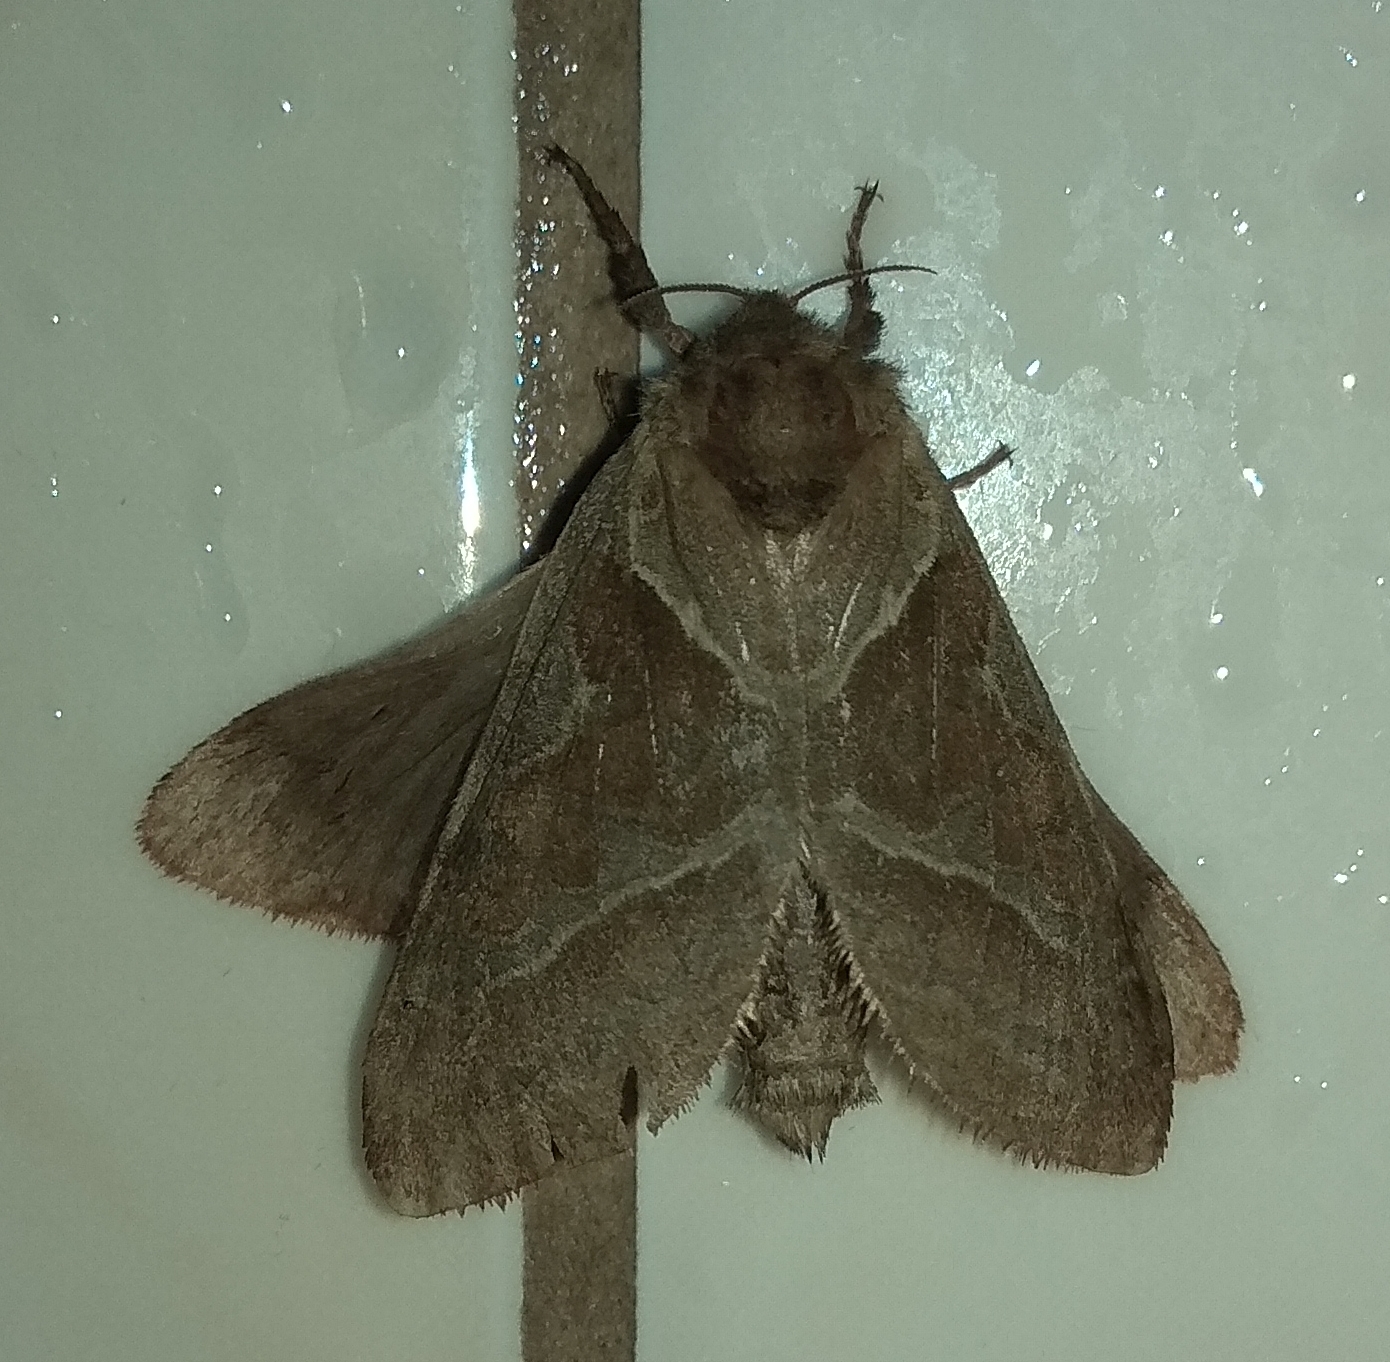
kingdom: Animalia
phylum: Arthropoda
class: Insecta
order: Lepidoptera
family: Hepialidae
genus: Triodia
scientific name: Triodia sylvina
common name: Orange swift
